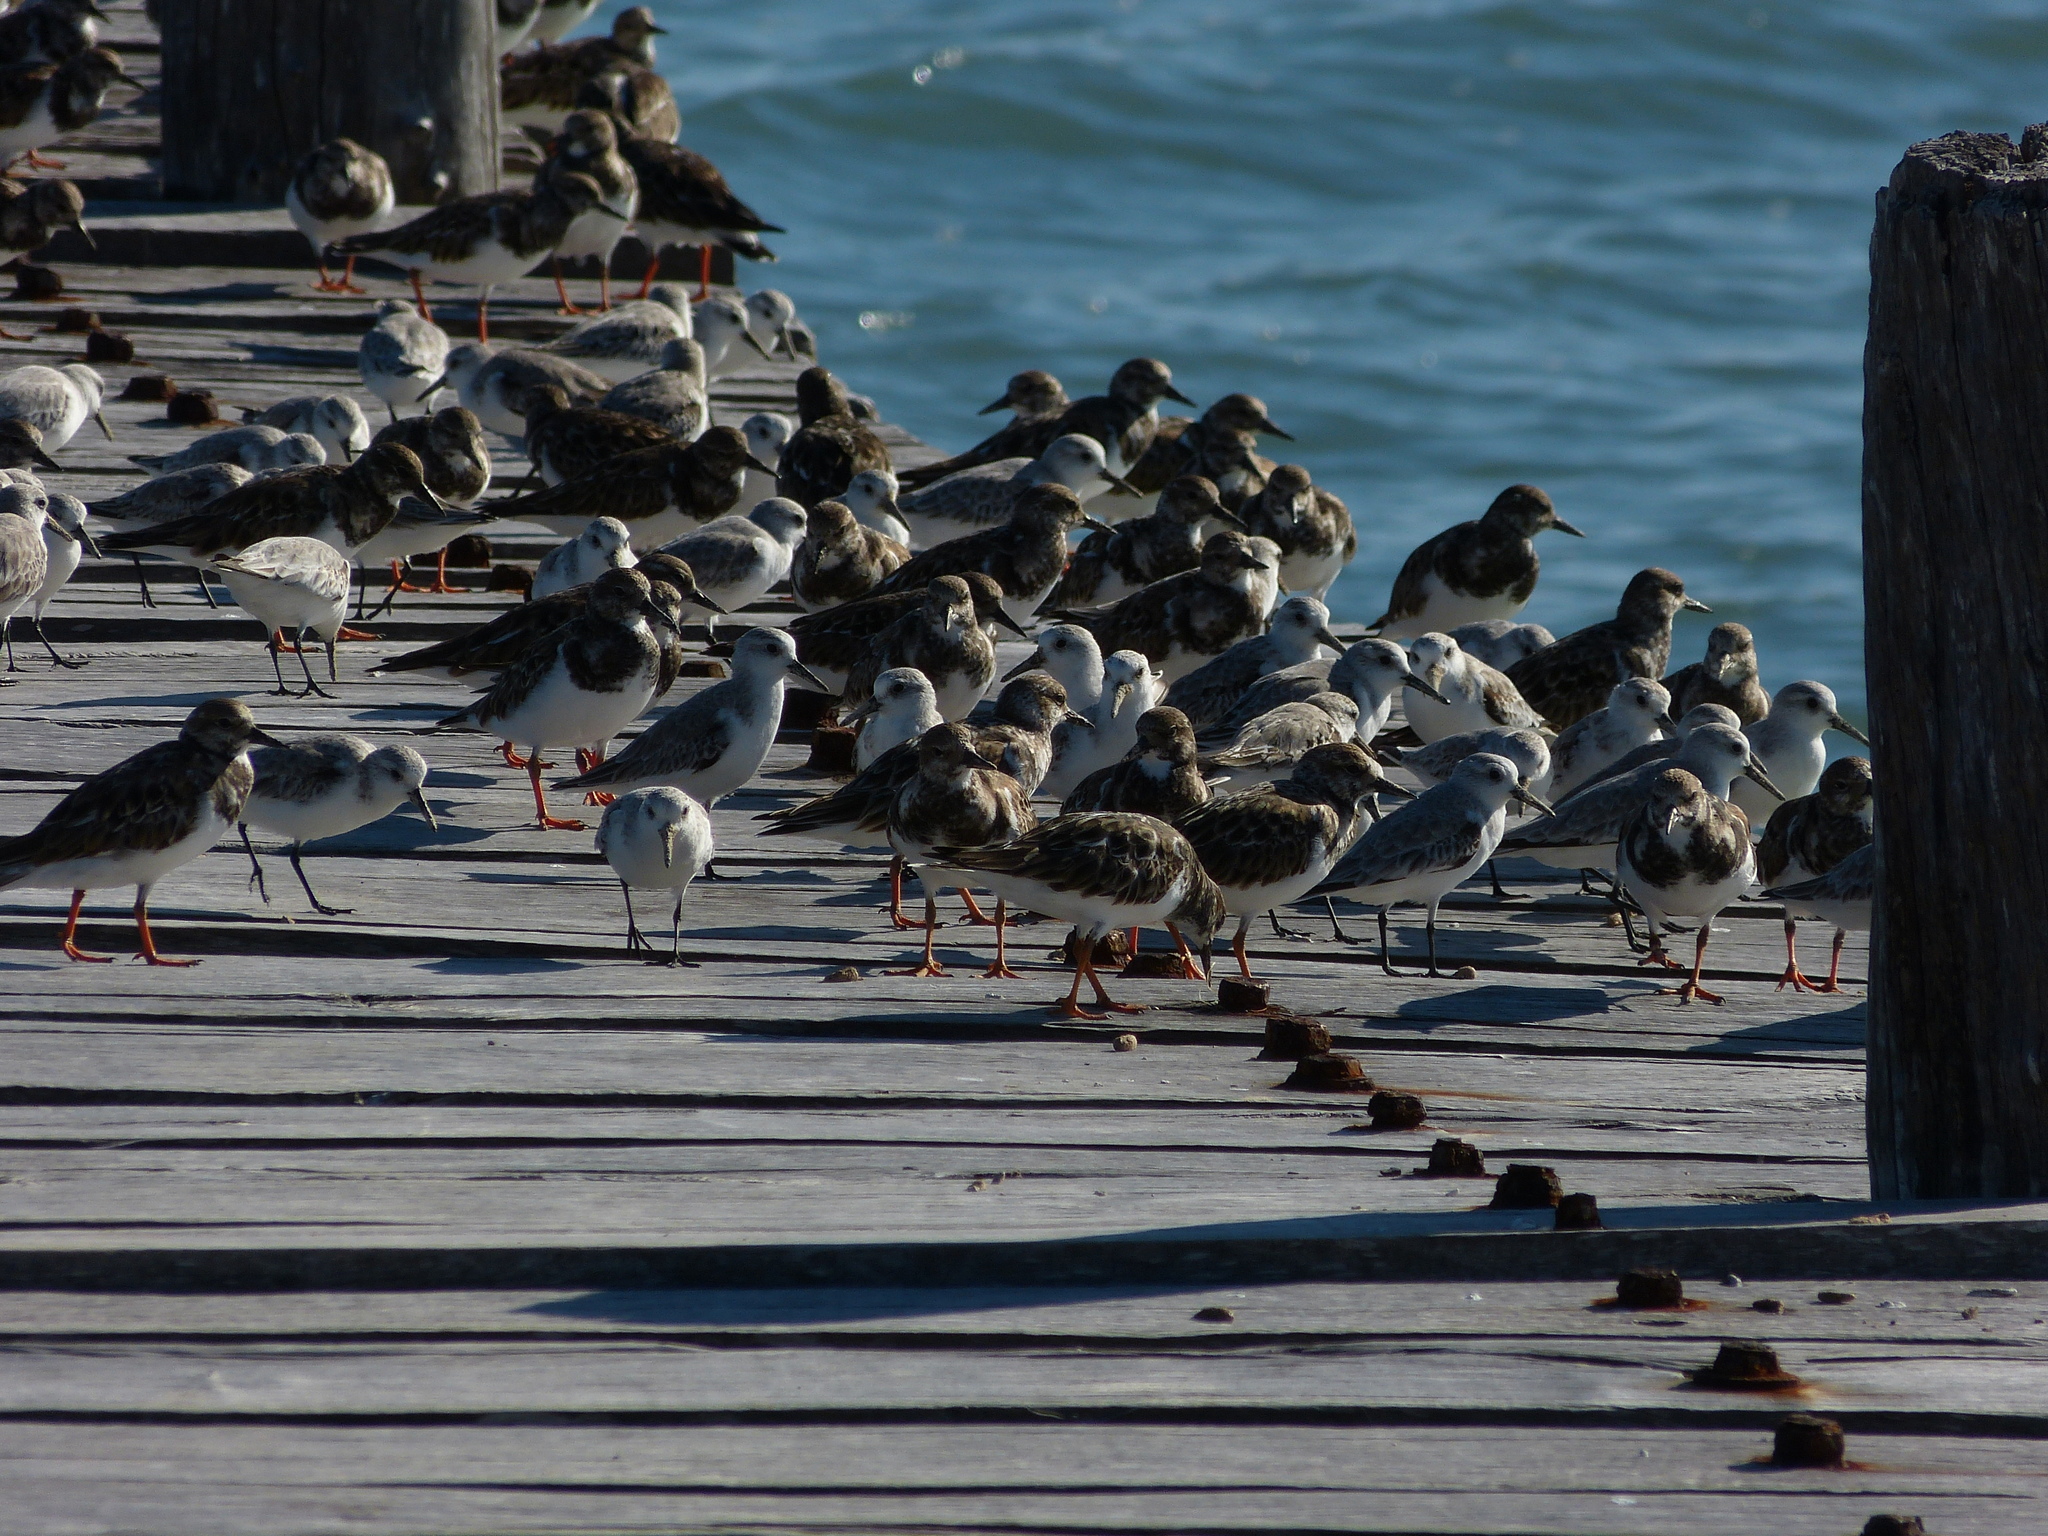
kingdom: Animalia
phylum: Chordata
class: Aves
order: Charadriiformes
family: Scolopacidae
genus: Arenaria
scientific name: Arenaria interpres
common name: Ruddy turnstone
